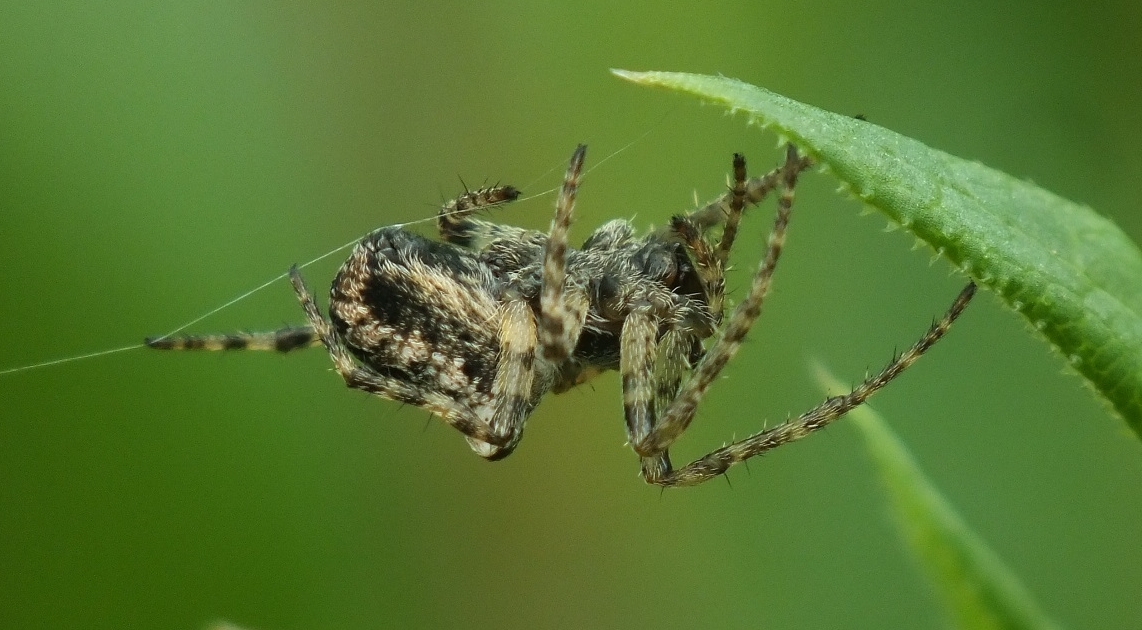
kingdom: Animalia
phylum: Arthropoda
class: Arachnida
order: Araneae
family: Araneidae
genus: Araneus
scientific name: Araneus angulatus
